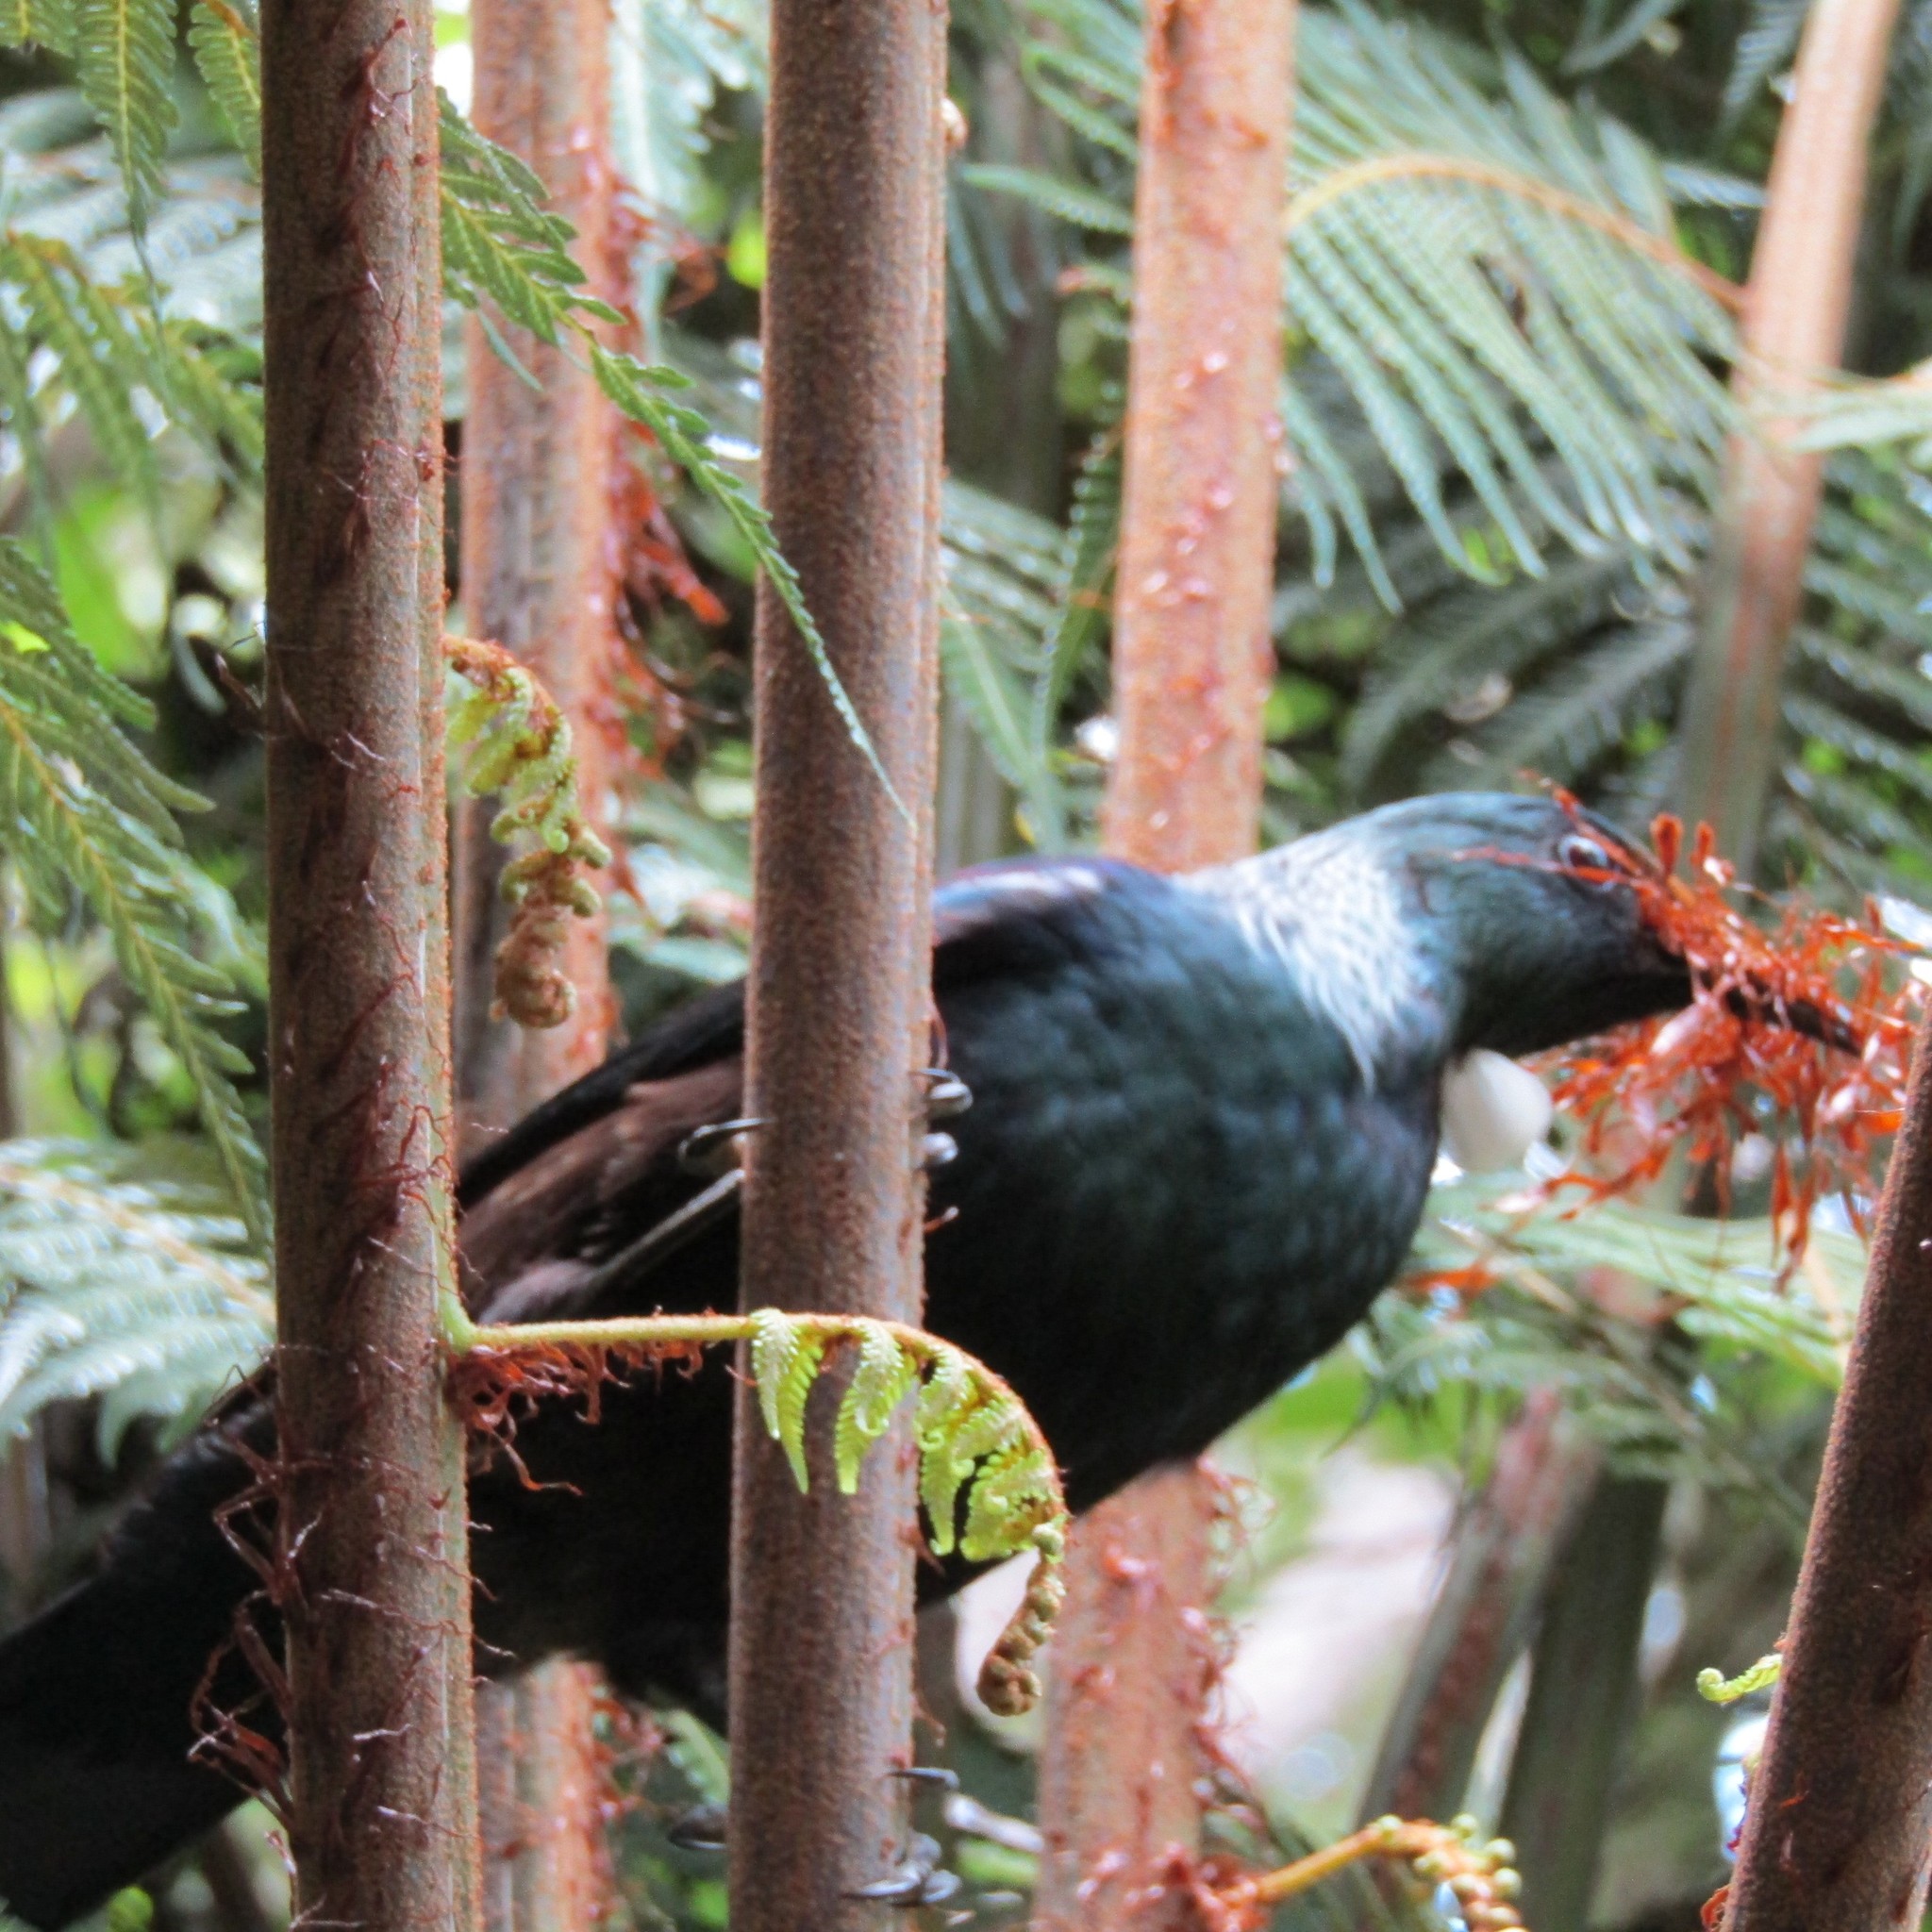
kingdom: Animalia
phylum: Chordata
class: Aves
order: Passeriformes
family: Meliphagidae
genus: Prosthemadera
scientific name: Prosthemadera novaeseelandiae
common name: Tui
